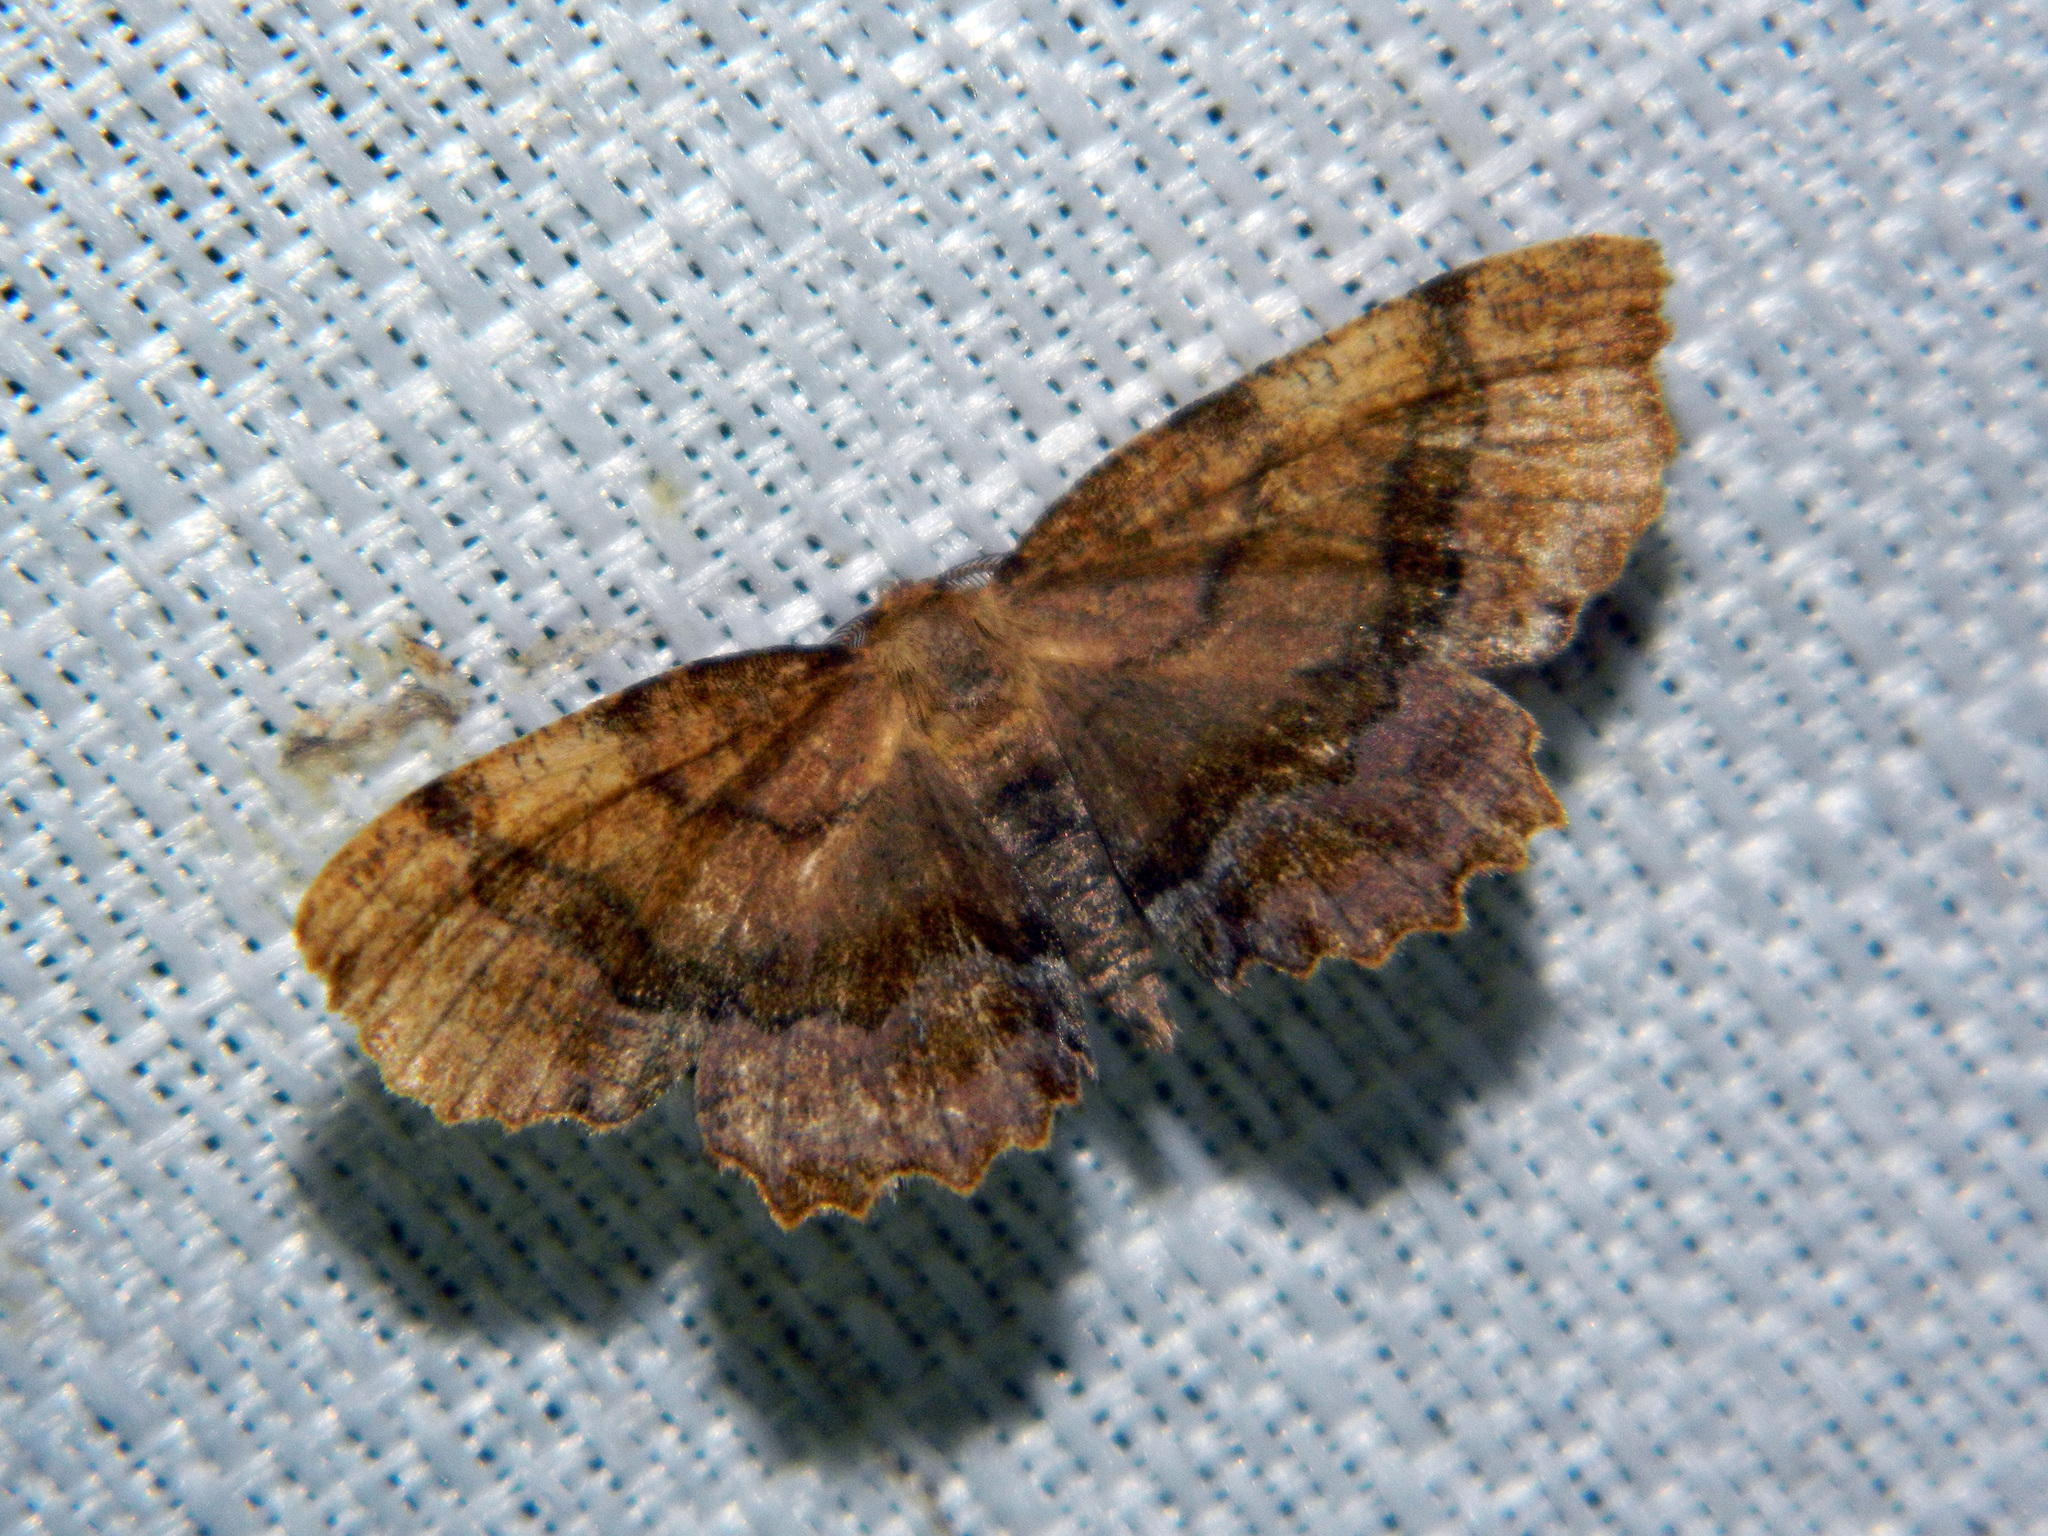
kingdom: Animalia
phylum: Arthropoda
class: Insecta
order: Lepidoptera
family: Geometridae
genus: Cepphis
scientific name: Cepphis armataria
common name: Scallop moth
